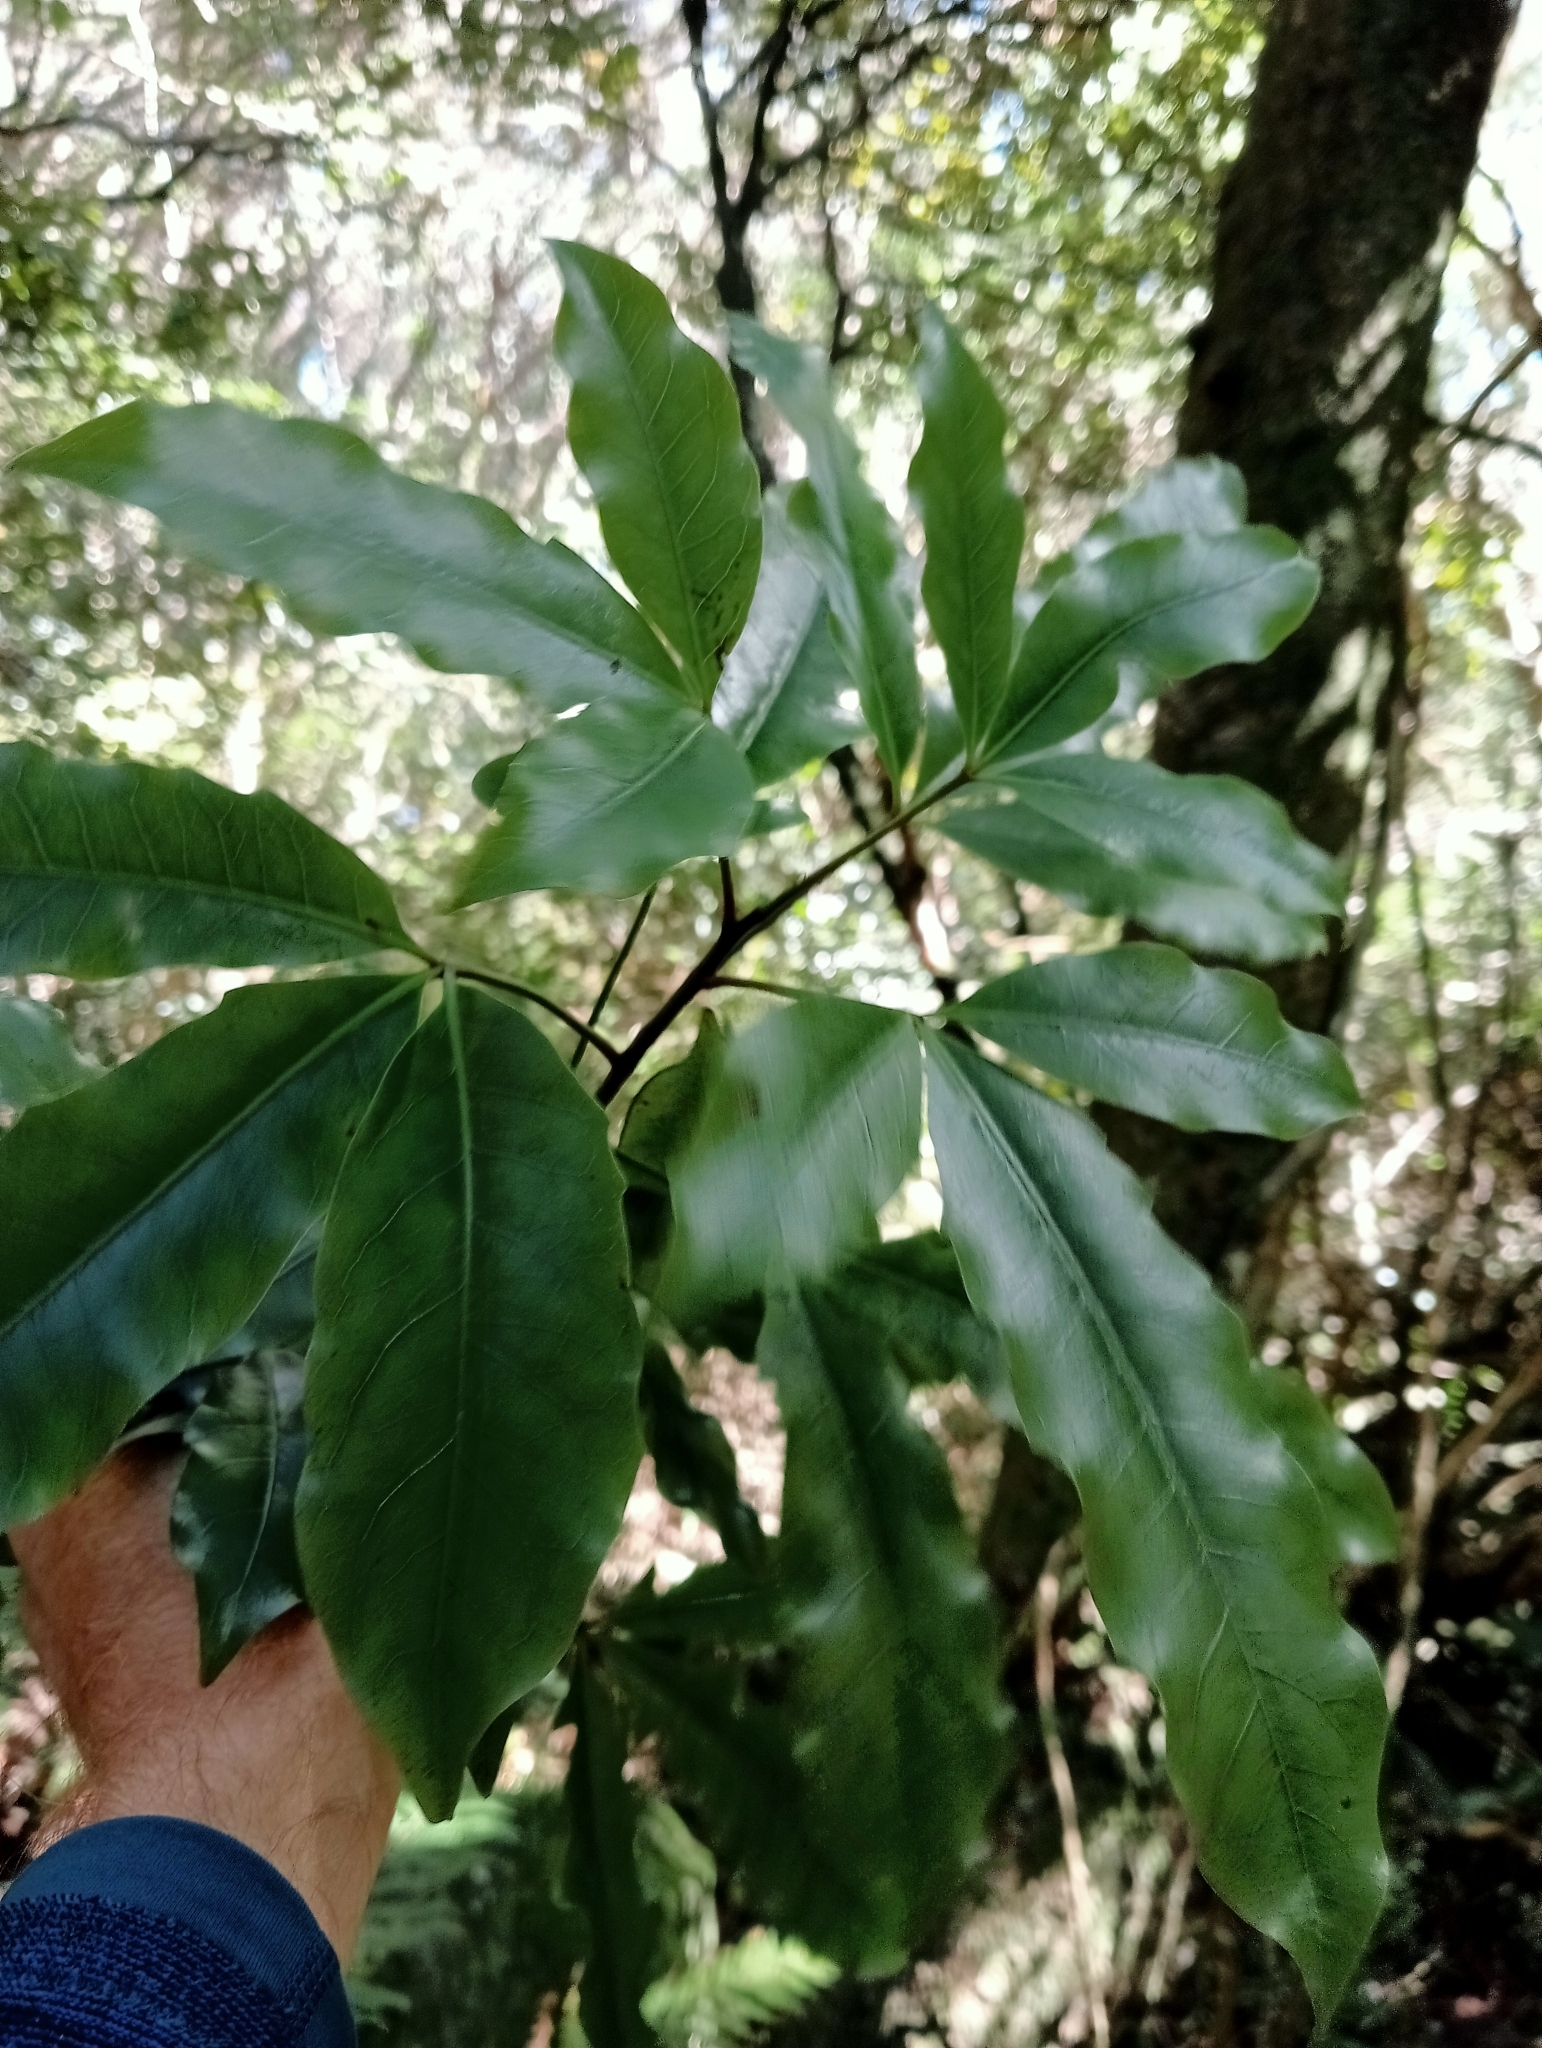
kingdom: Plantae
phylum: Tracheophyta
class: Magnoliopsida
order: Apiales
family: Araliaceae
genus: Raukaua
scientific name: Raukaua edgerleyi
